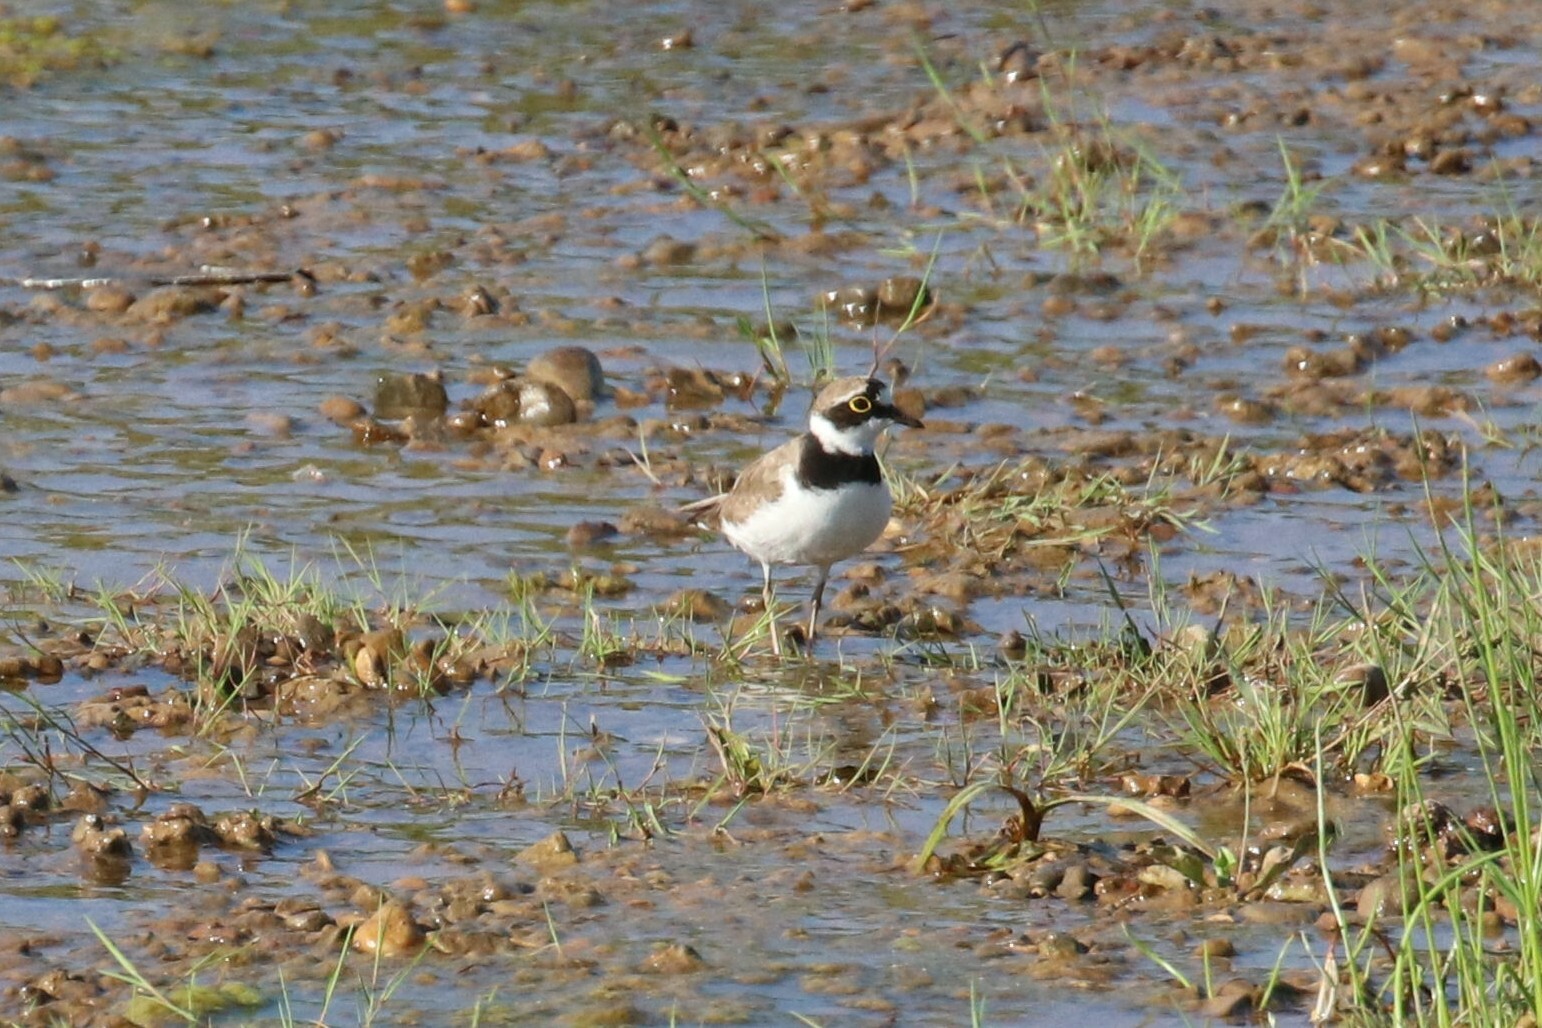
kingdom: Animalia
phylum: Chordata
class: Aves
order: Charadriiformes
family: Charadriidae
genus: Charadrius
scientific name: Charadrius dubius
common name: Little ringed plover
